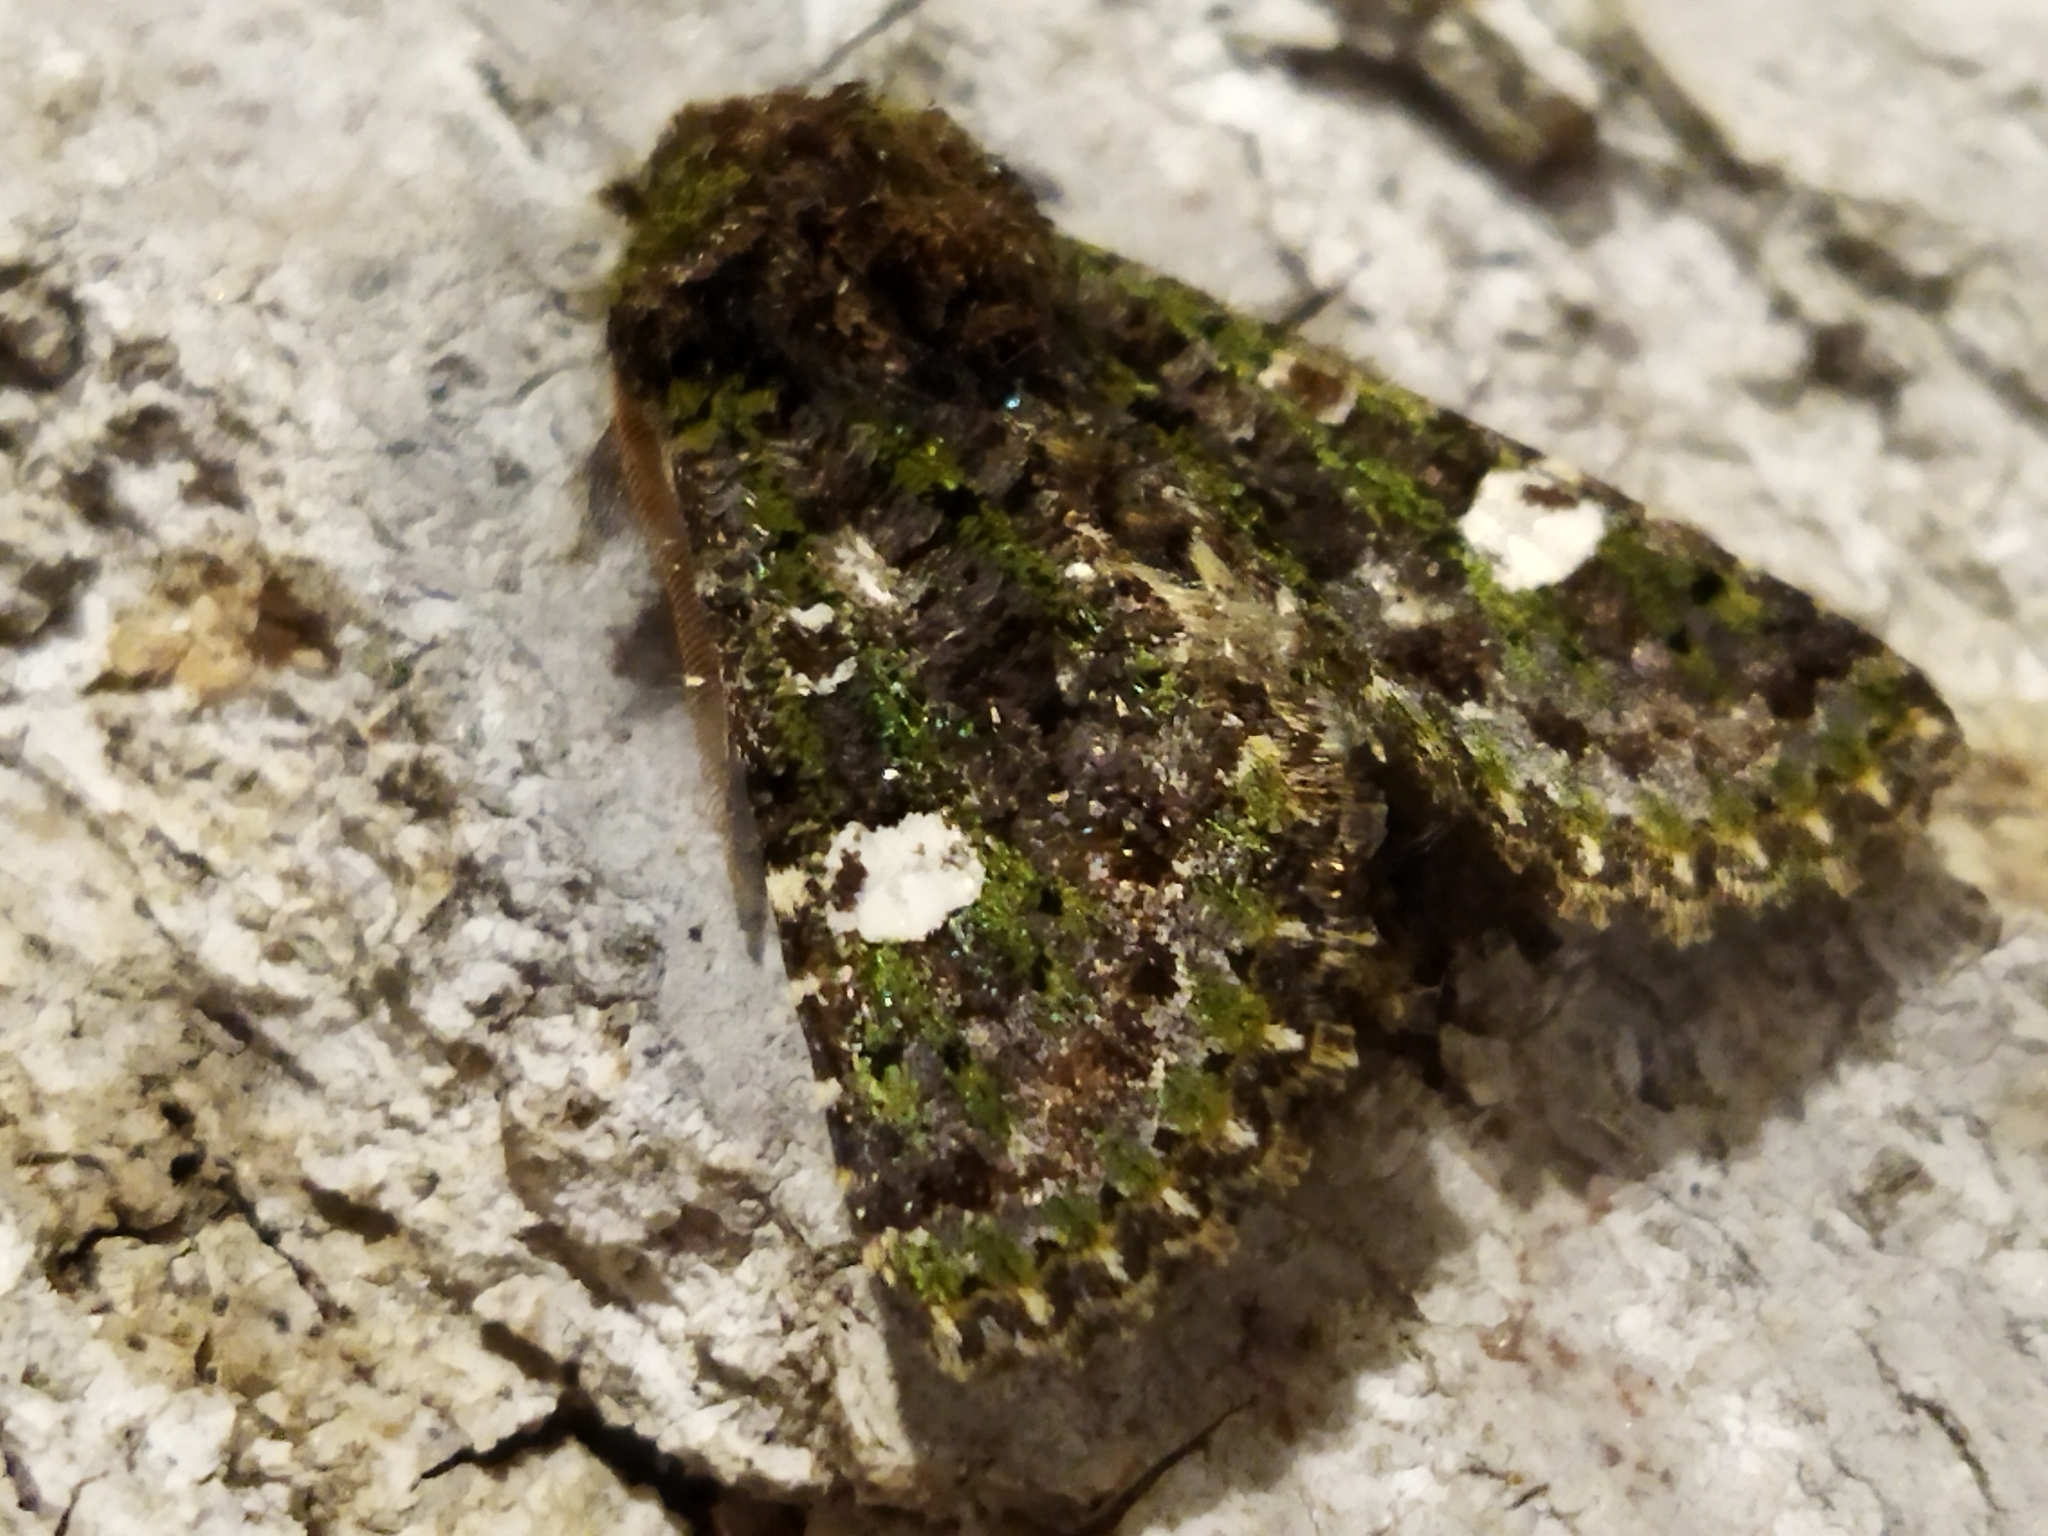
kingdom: Animalia
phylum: Arthropoda
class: Insecta
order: Lepidoptera
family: Noctuidae
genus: Valeria
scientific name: Valeria oleagina
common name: Green-brindled dot
